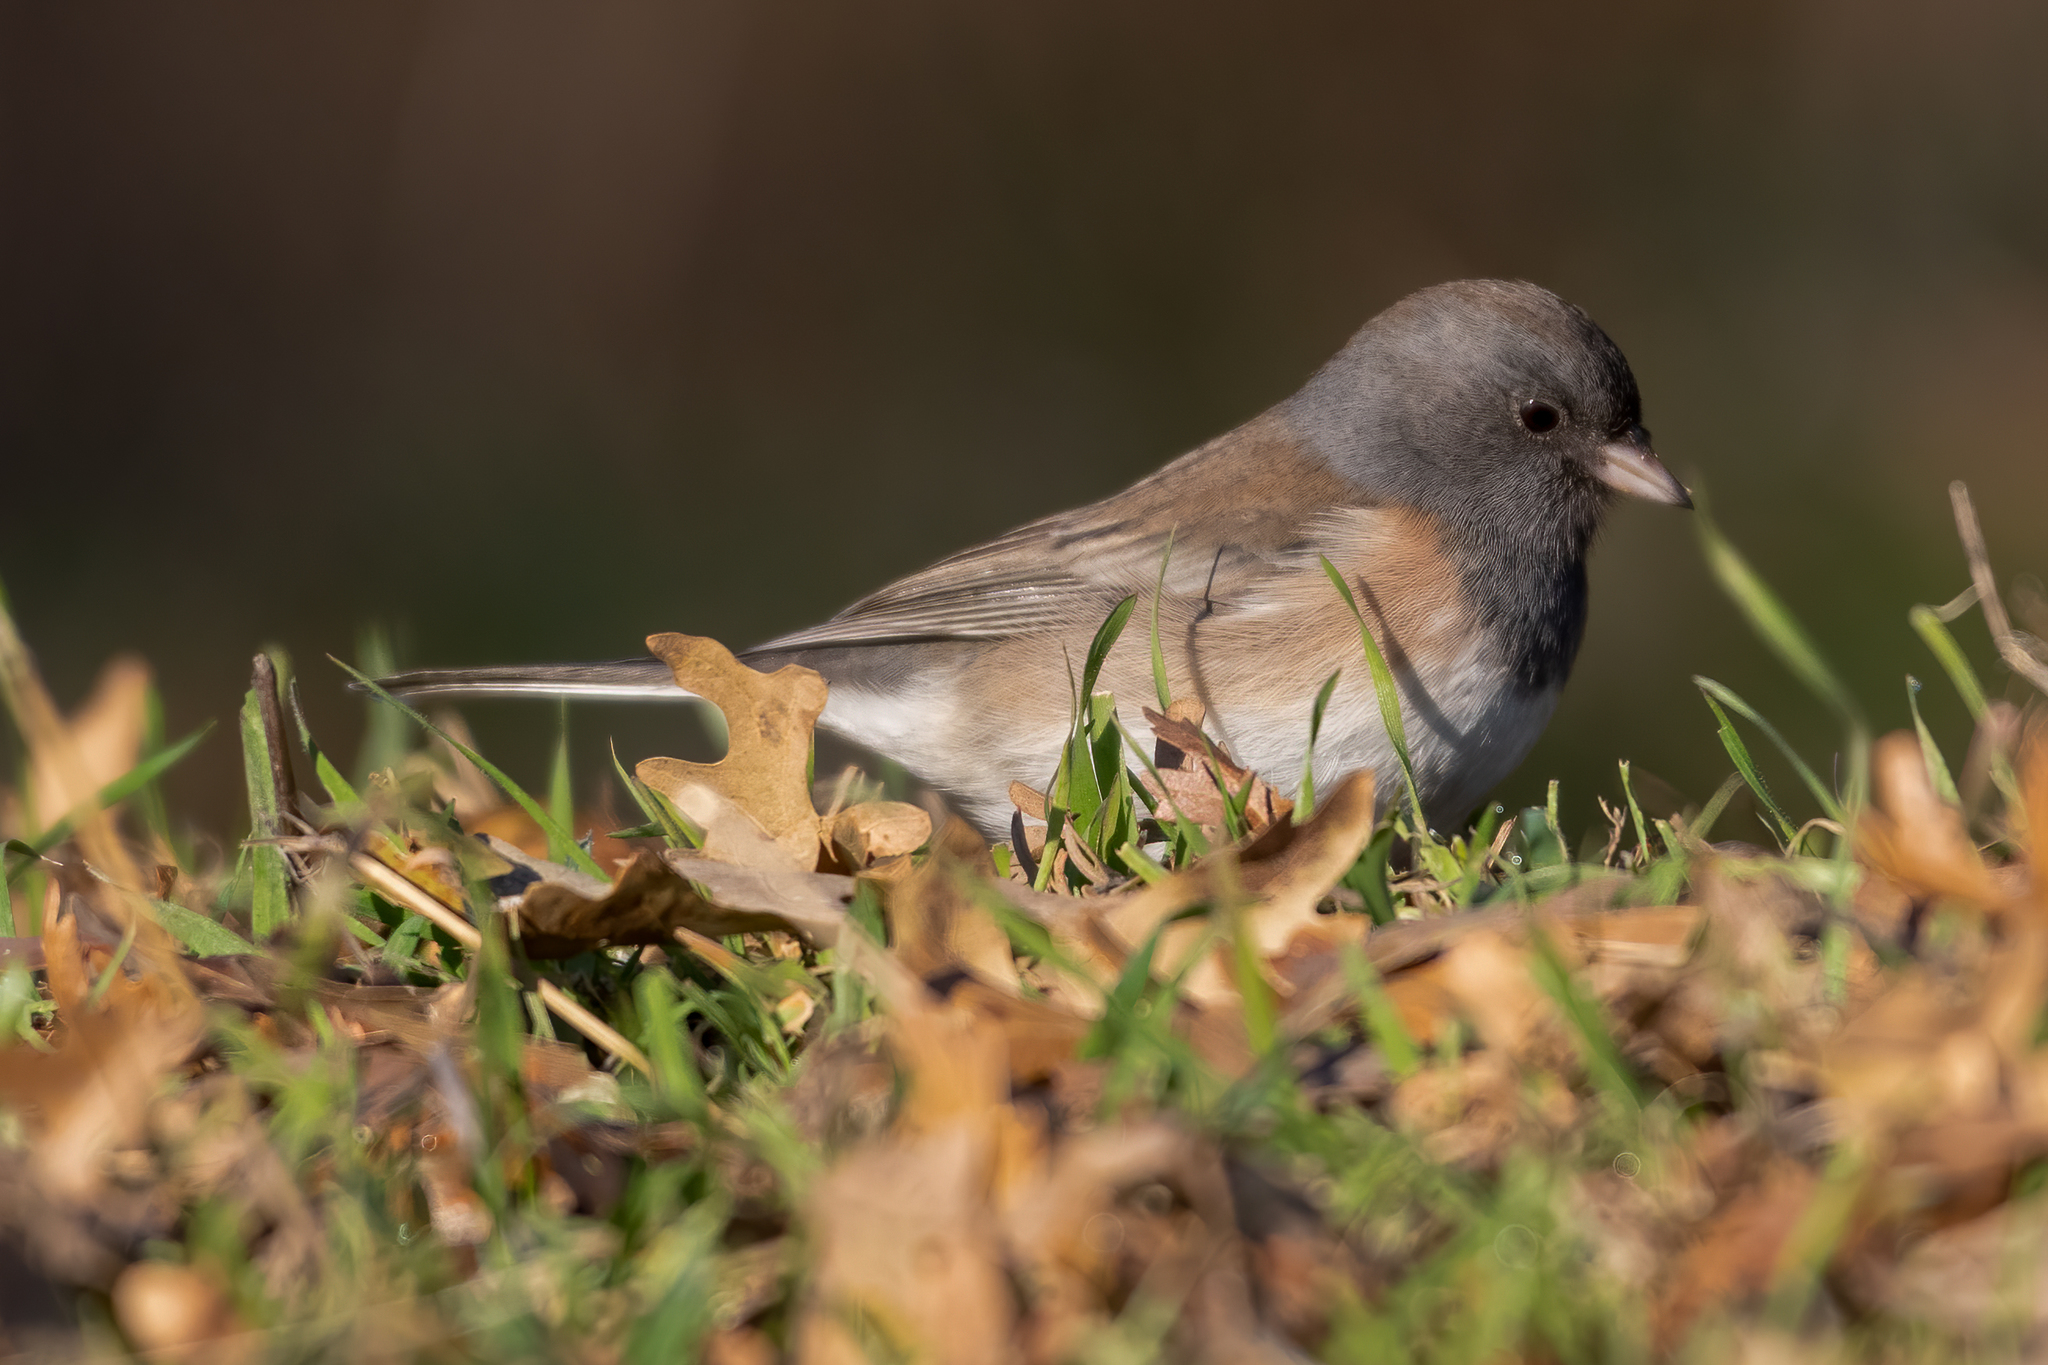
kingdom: Animalia
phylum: Chordata
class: Aves
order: Passeriformes
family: Passerellidae
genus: Junco
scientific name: Junco hyemalis
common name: Dark-eyed junco
